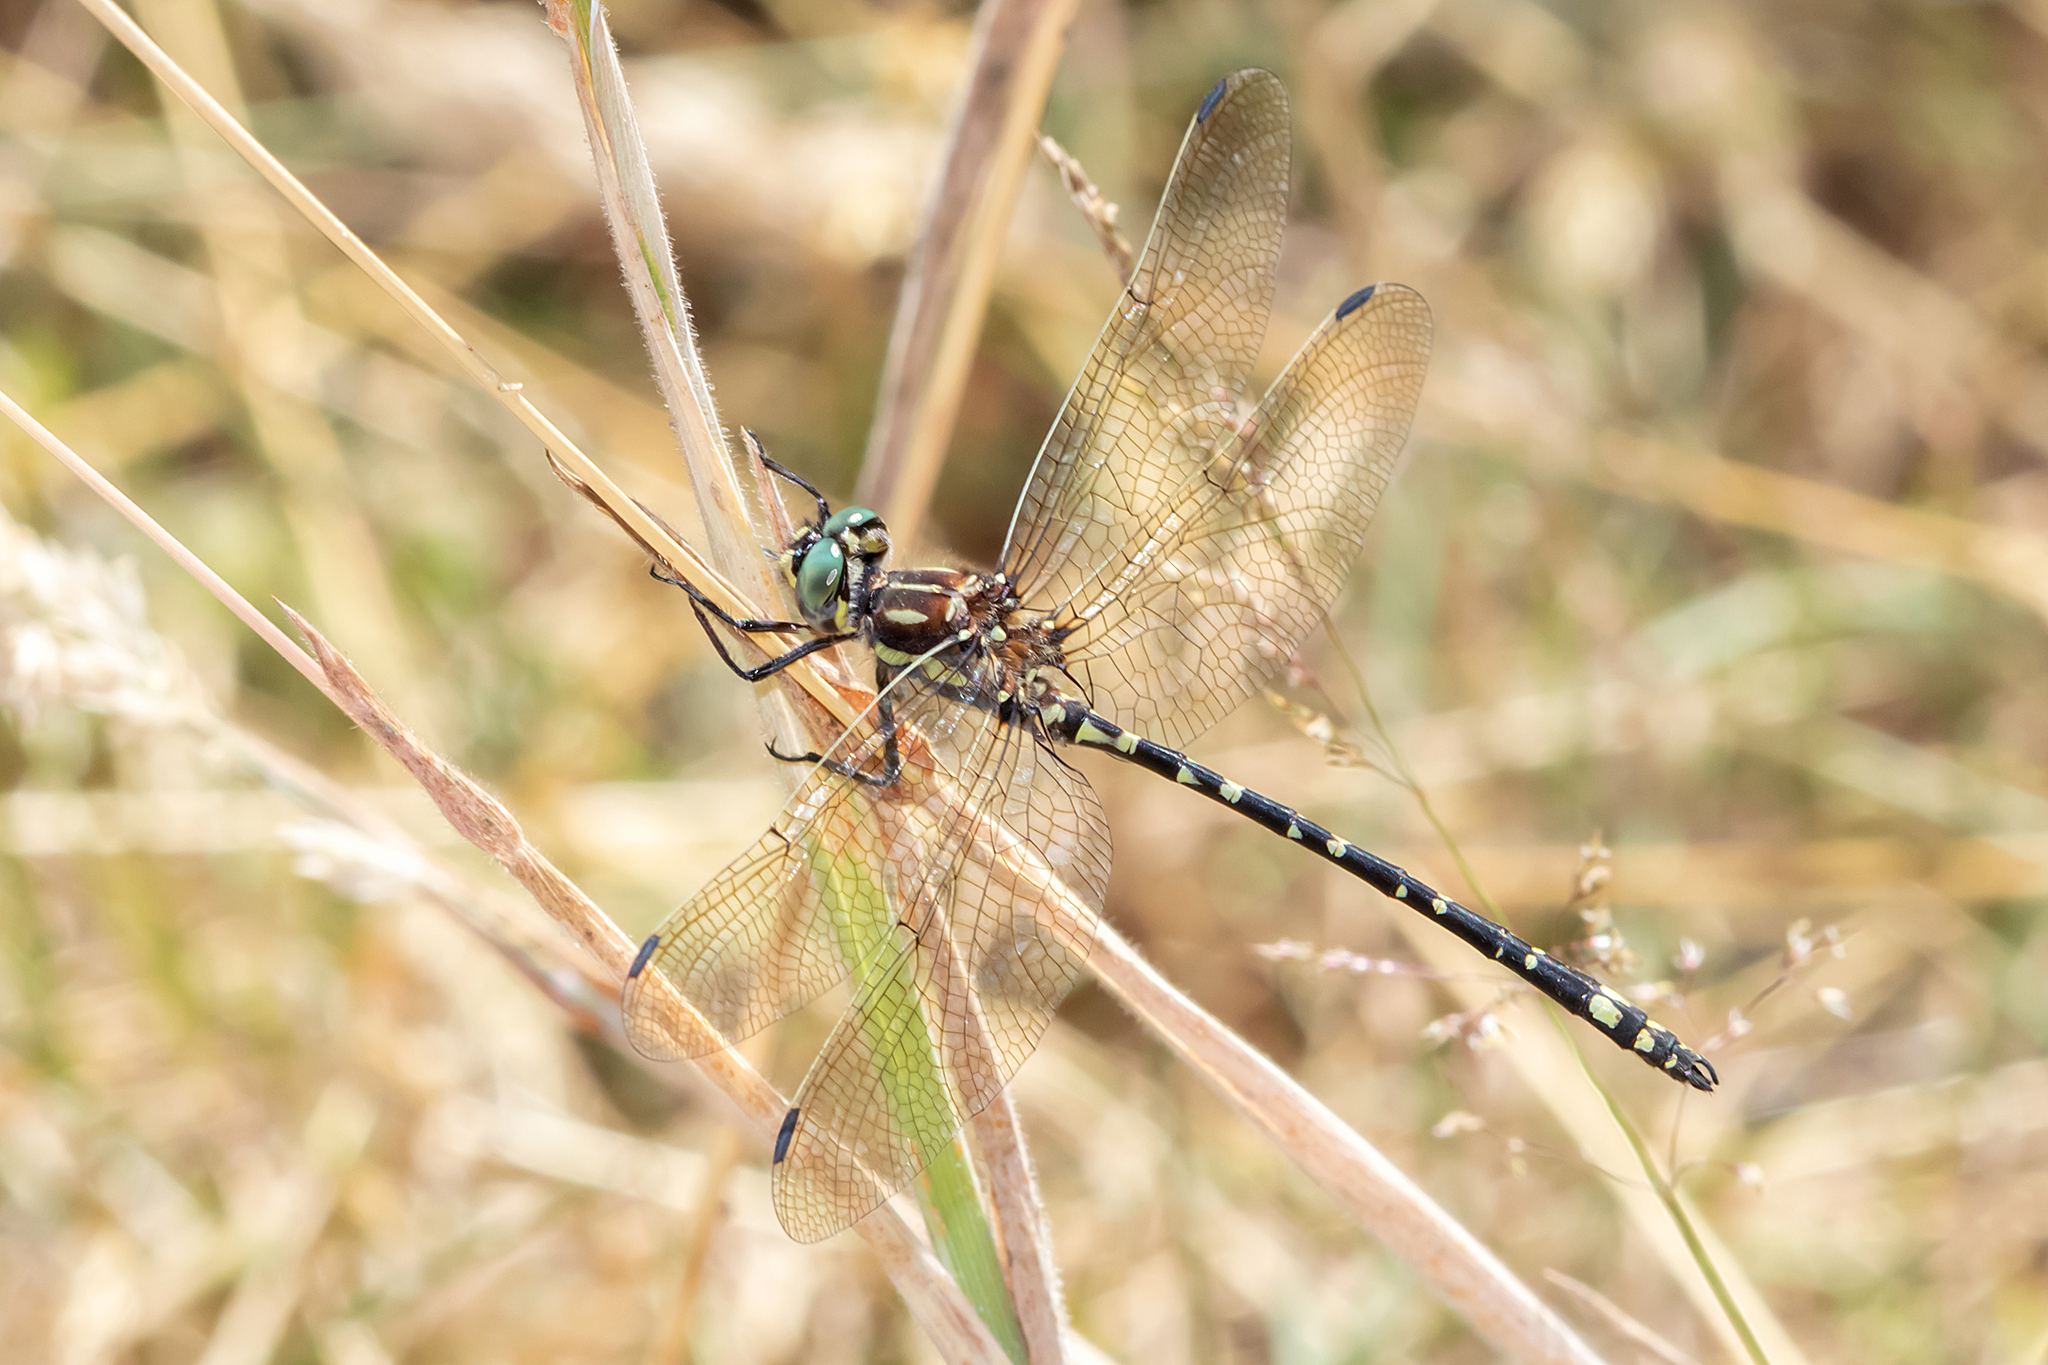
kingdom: Animalia
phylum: Arthropoda
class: Insecta
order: Odonata
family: Synthemistidae
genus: Eusynthemis
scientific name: Eusynthemis virgula
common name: Golden tigertail
